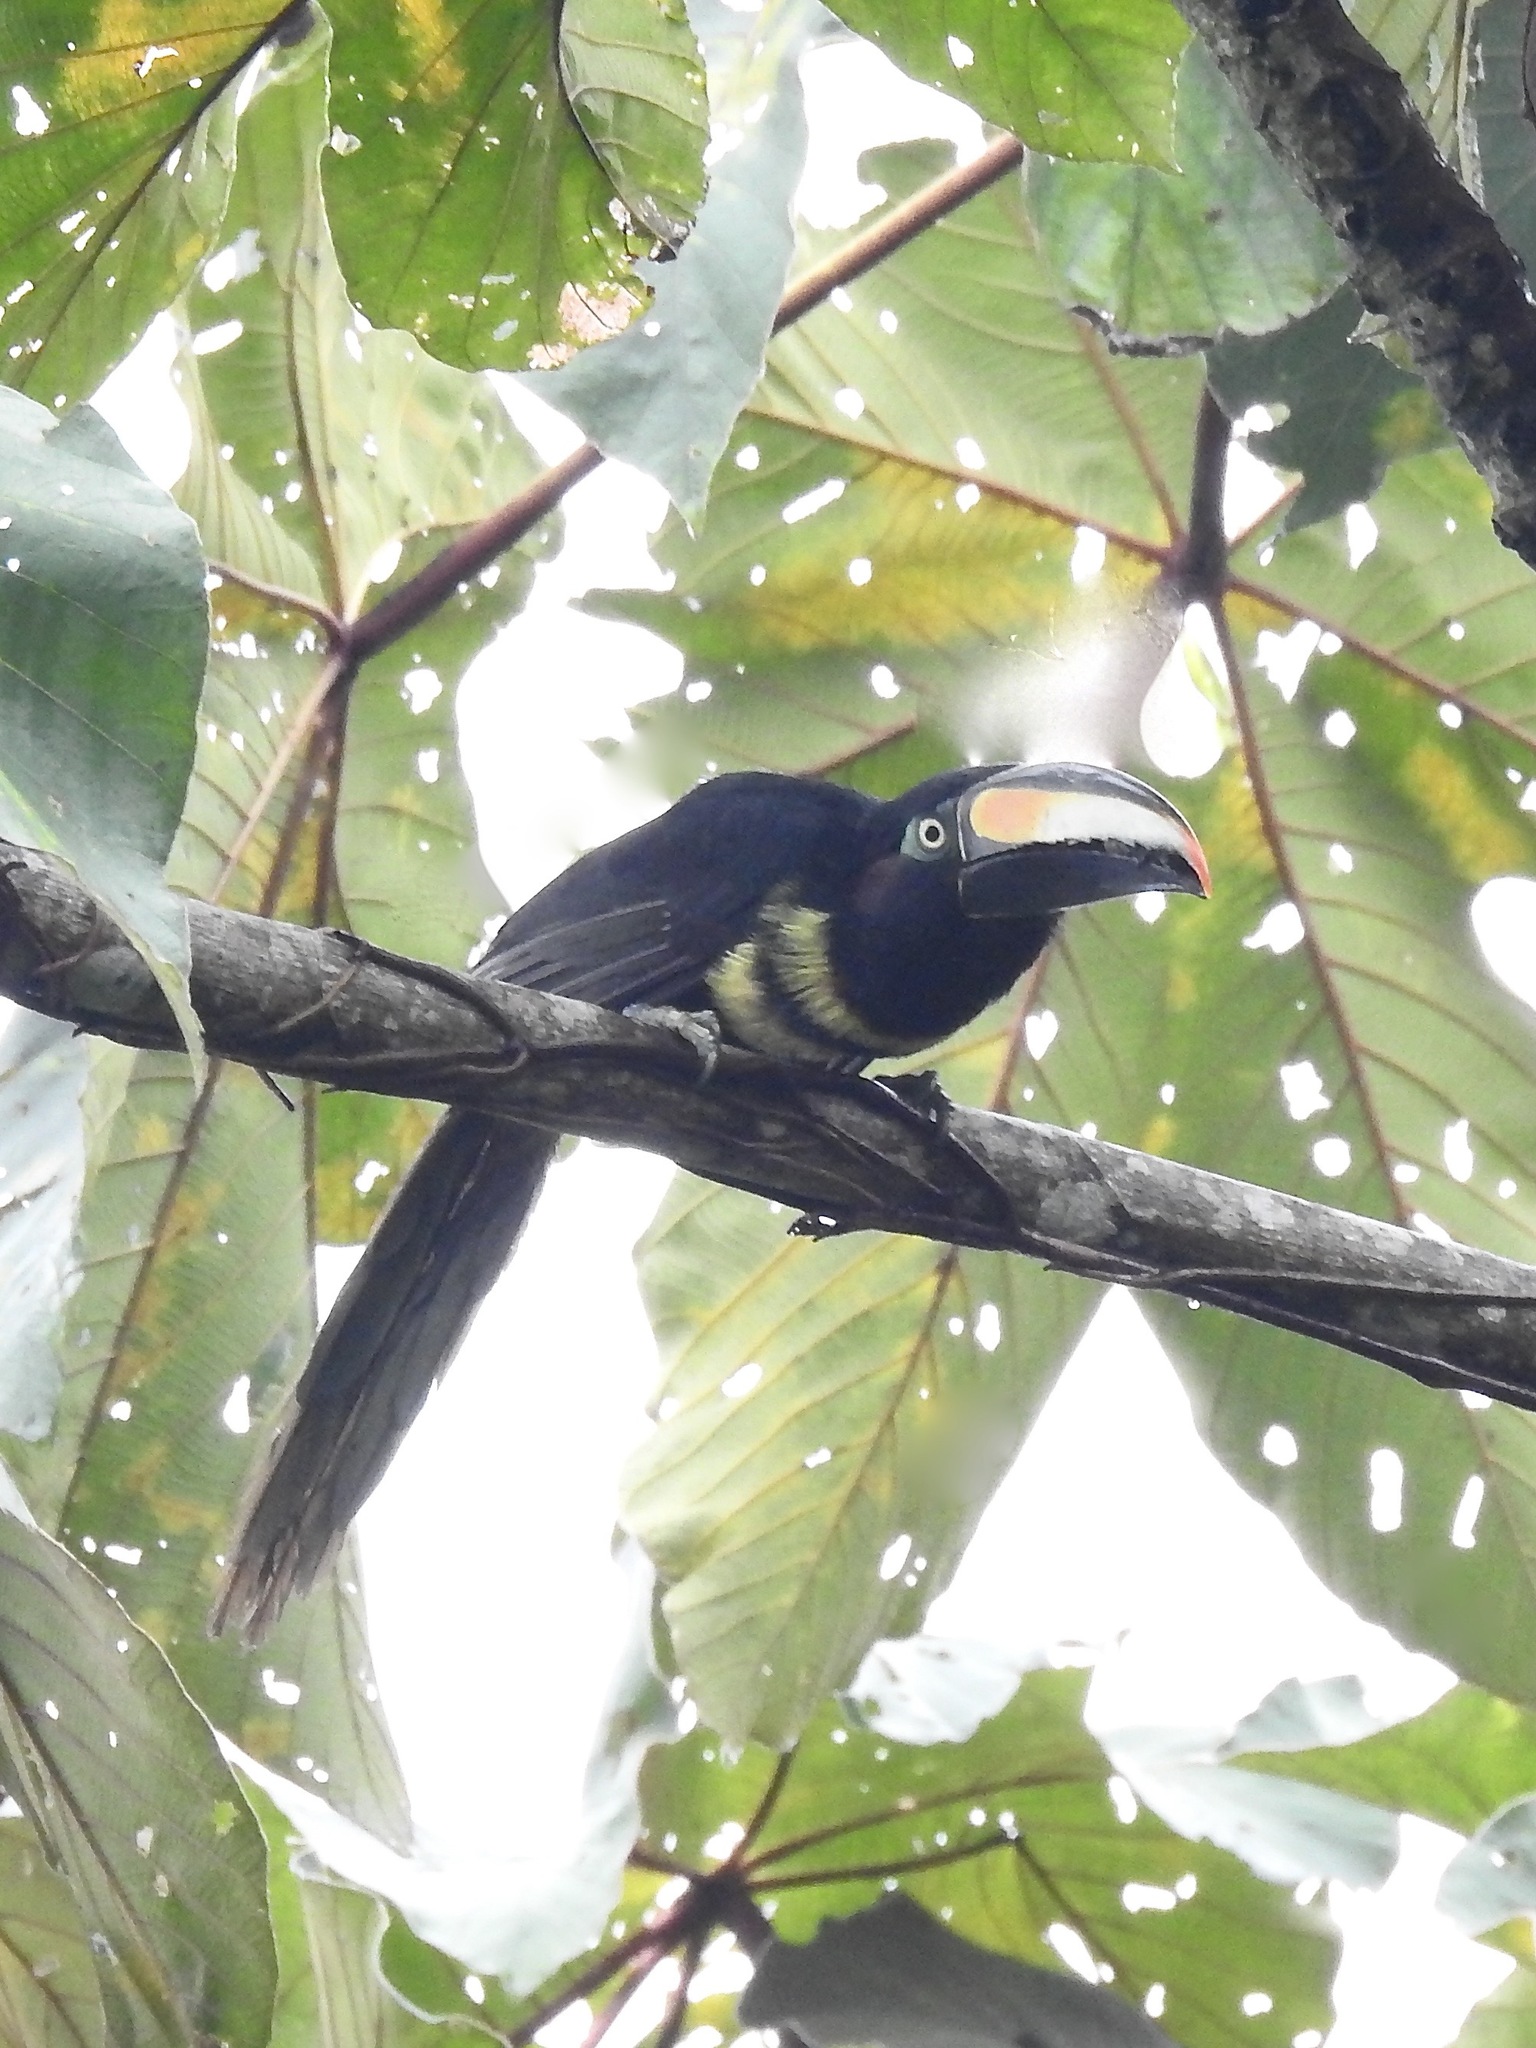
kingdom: Animalia
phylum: Chordata
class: Aves
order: Piciformes
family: Ramphastidae
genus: Pteroglossus
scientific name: Pteroglossus pluricinctus
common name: Many-banded aracari
